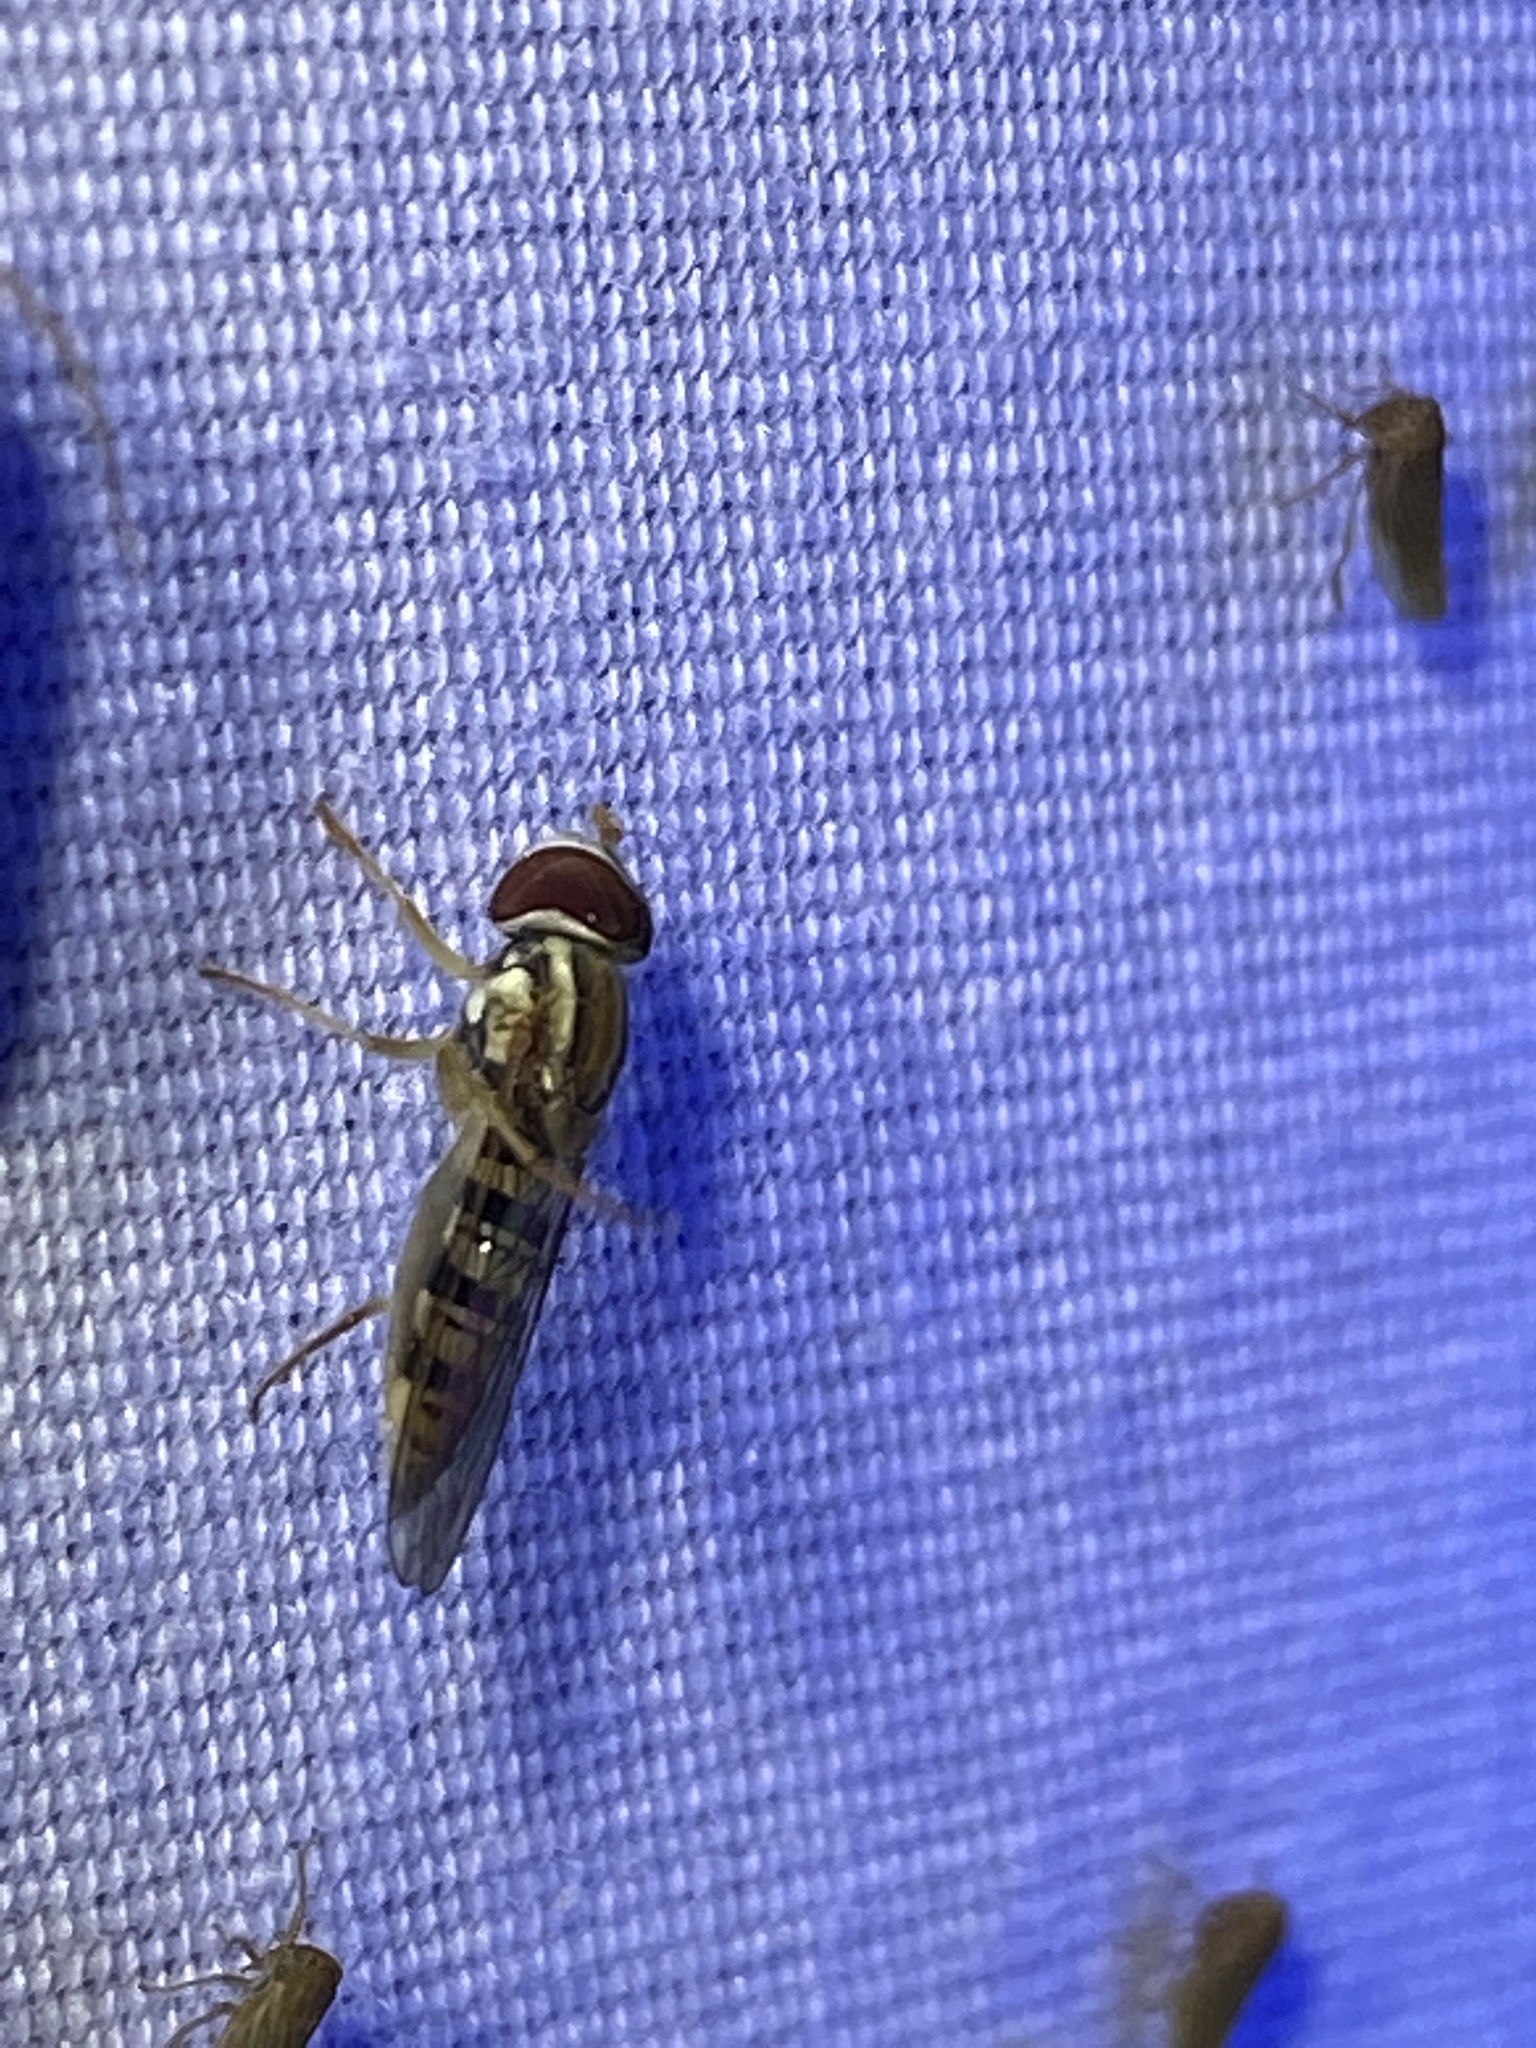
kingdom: Animalia
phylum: Arthropoda
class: Insecta
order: Diptera
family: Syrphidae
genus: Toxomerus
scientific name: Toxomerus politus
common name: Maize calligrapher
